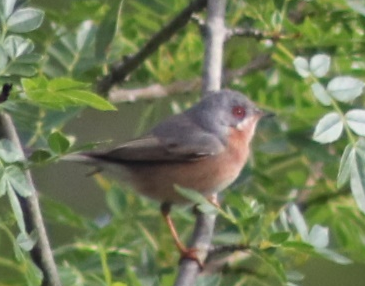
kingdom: Animalia
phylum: Chordata
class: Aves
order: Passeriformes
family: Sylviidae
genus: Curruca
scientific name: Curruca iberiae
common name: Western subalpine warbler
